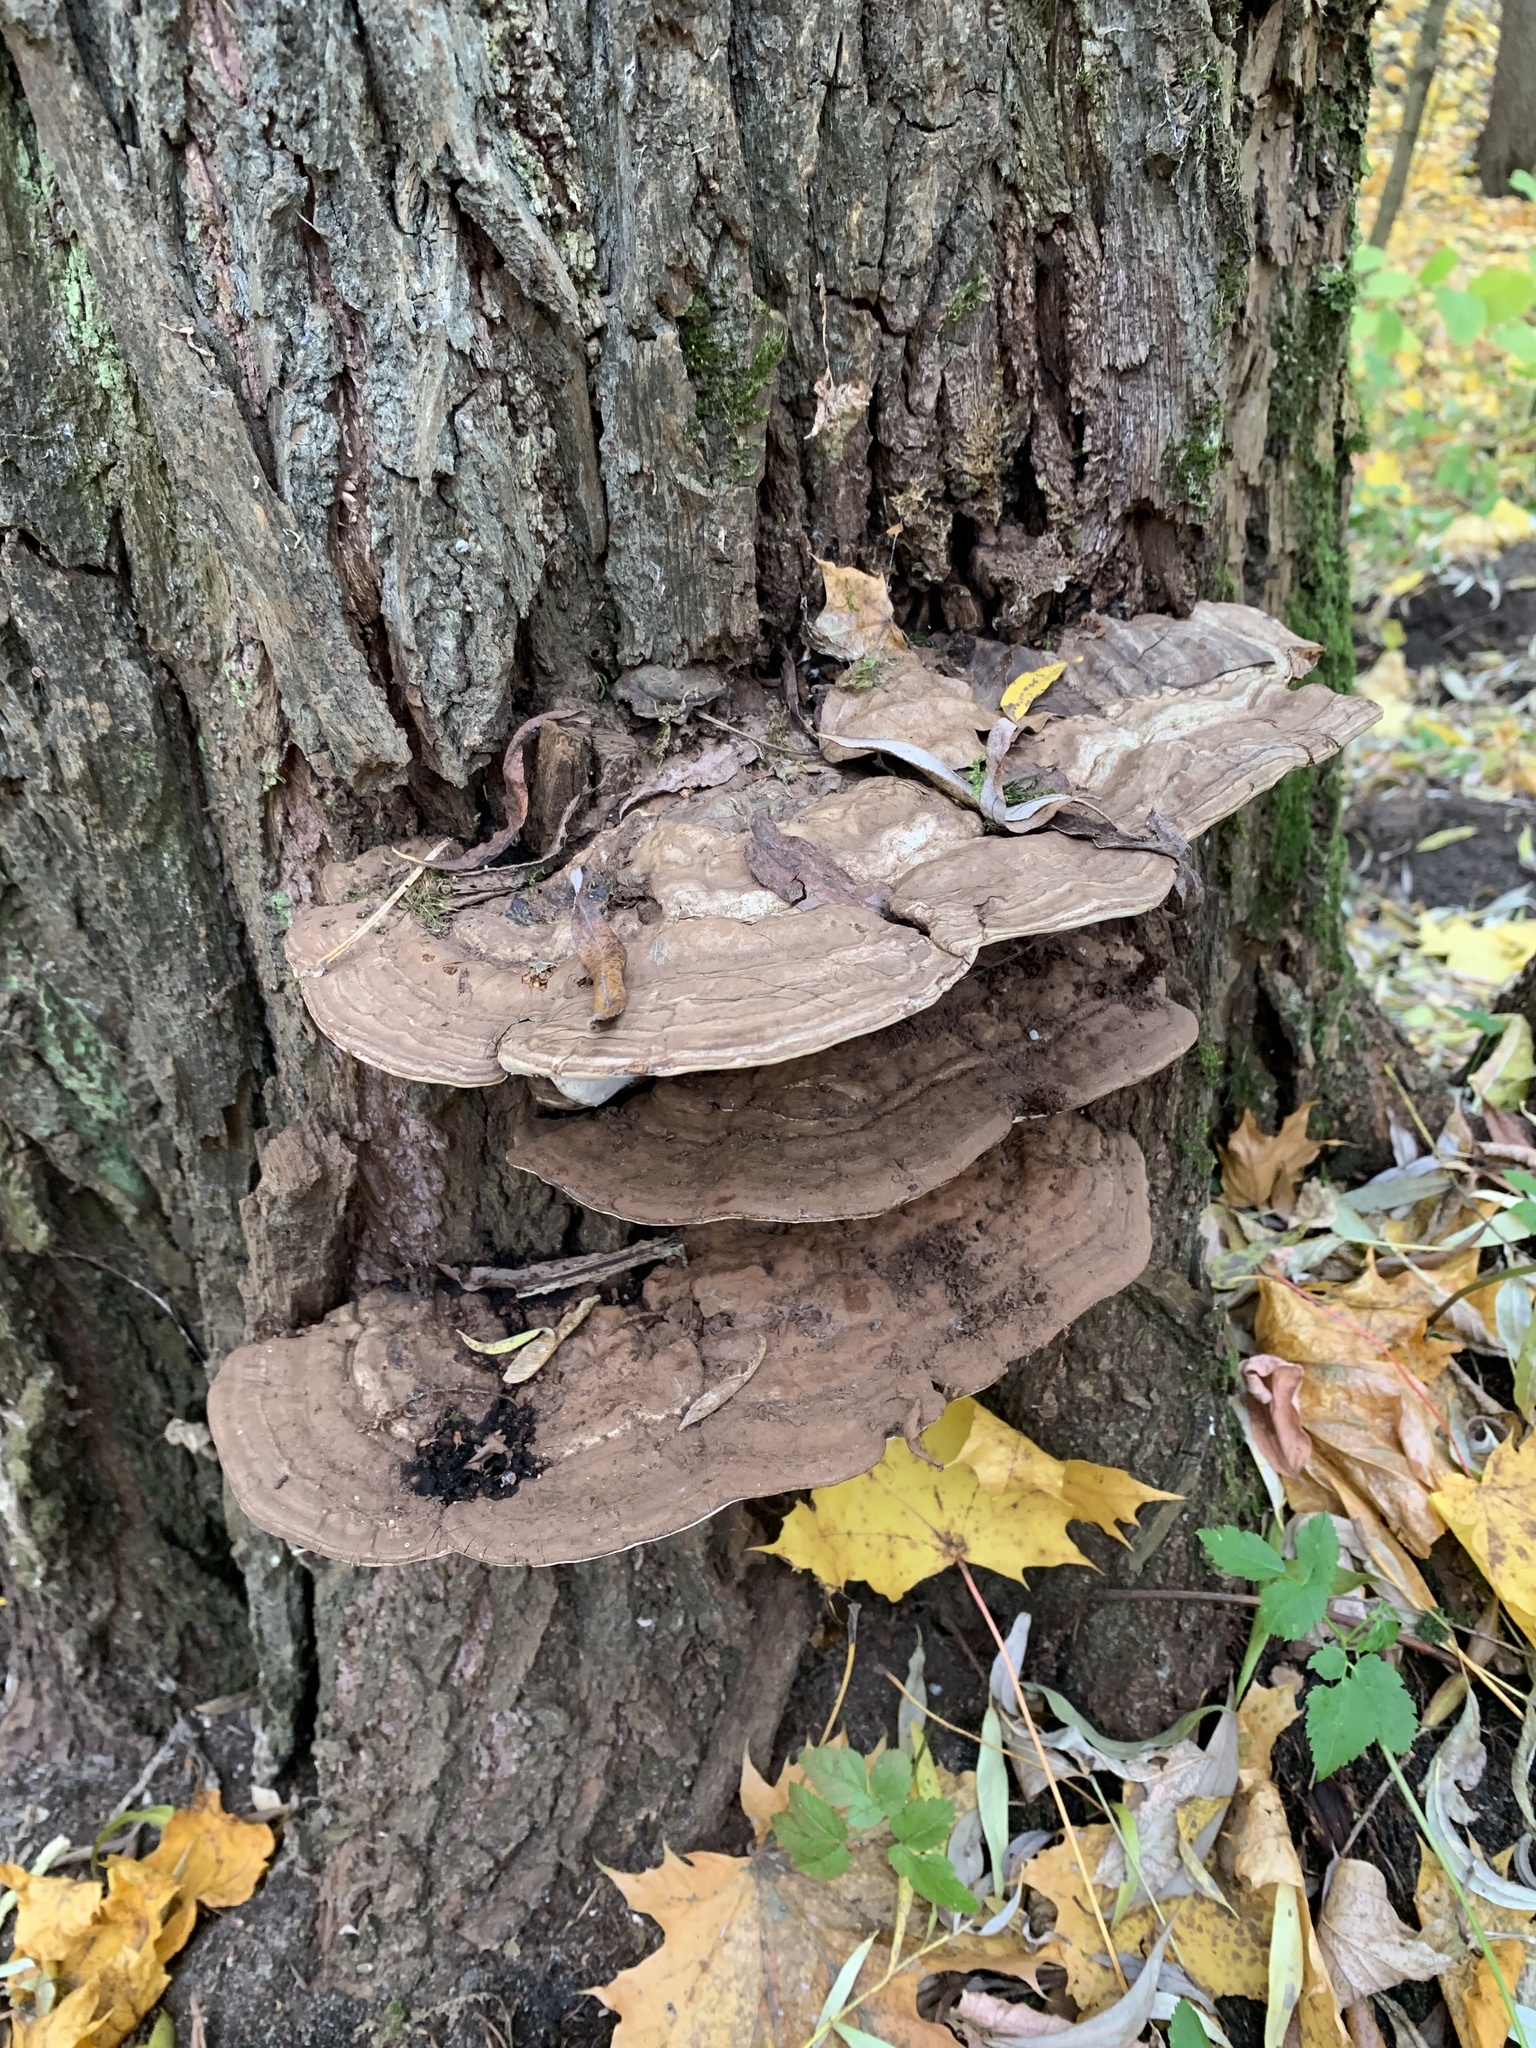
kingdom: Fungi
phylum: Basidiomycota
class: Agaricomycetes
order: Polyporales
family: Polyporaceae
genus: Ganoderma
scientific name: Ganoderma applanatum
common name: Artist's bracket
